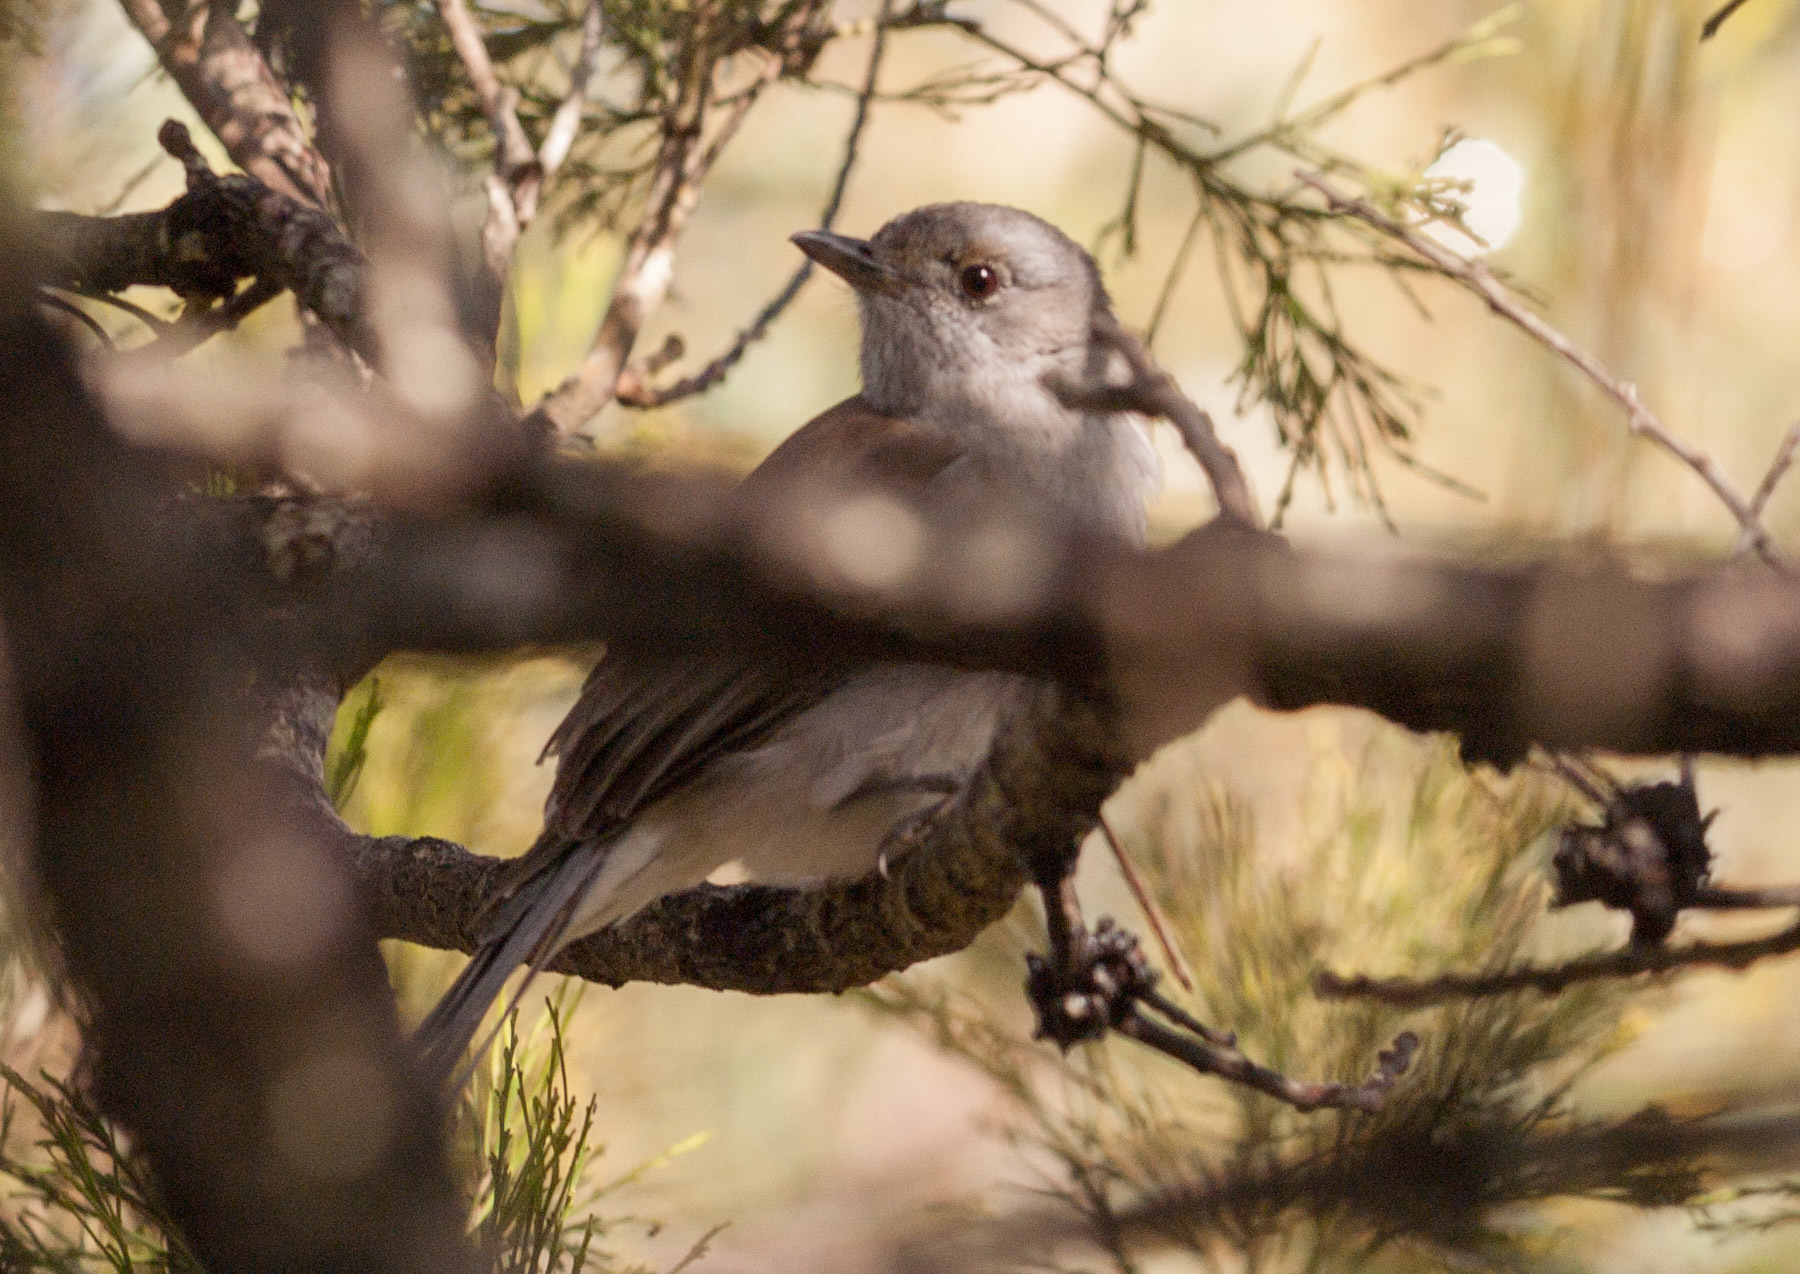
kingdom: Animalia
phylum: Chordata
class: Aves
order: Passeriformes
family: Pachycephalidae
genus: Colluricincla
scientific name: Colluricincla harmonica
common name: Grey shrikethrush
